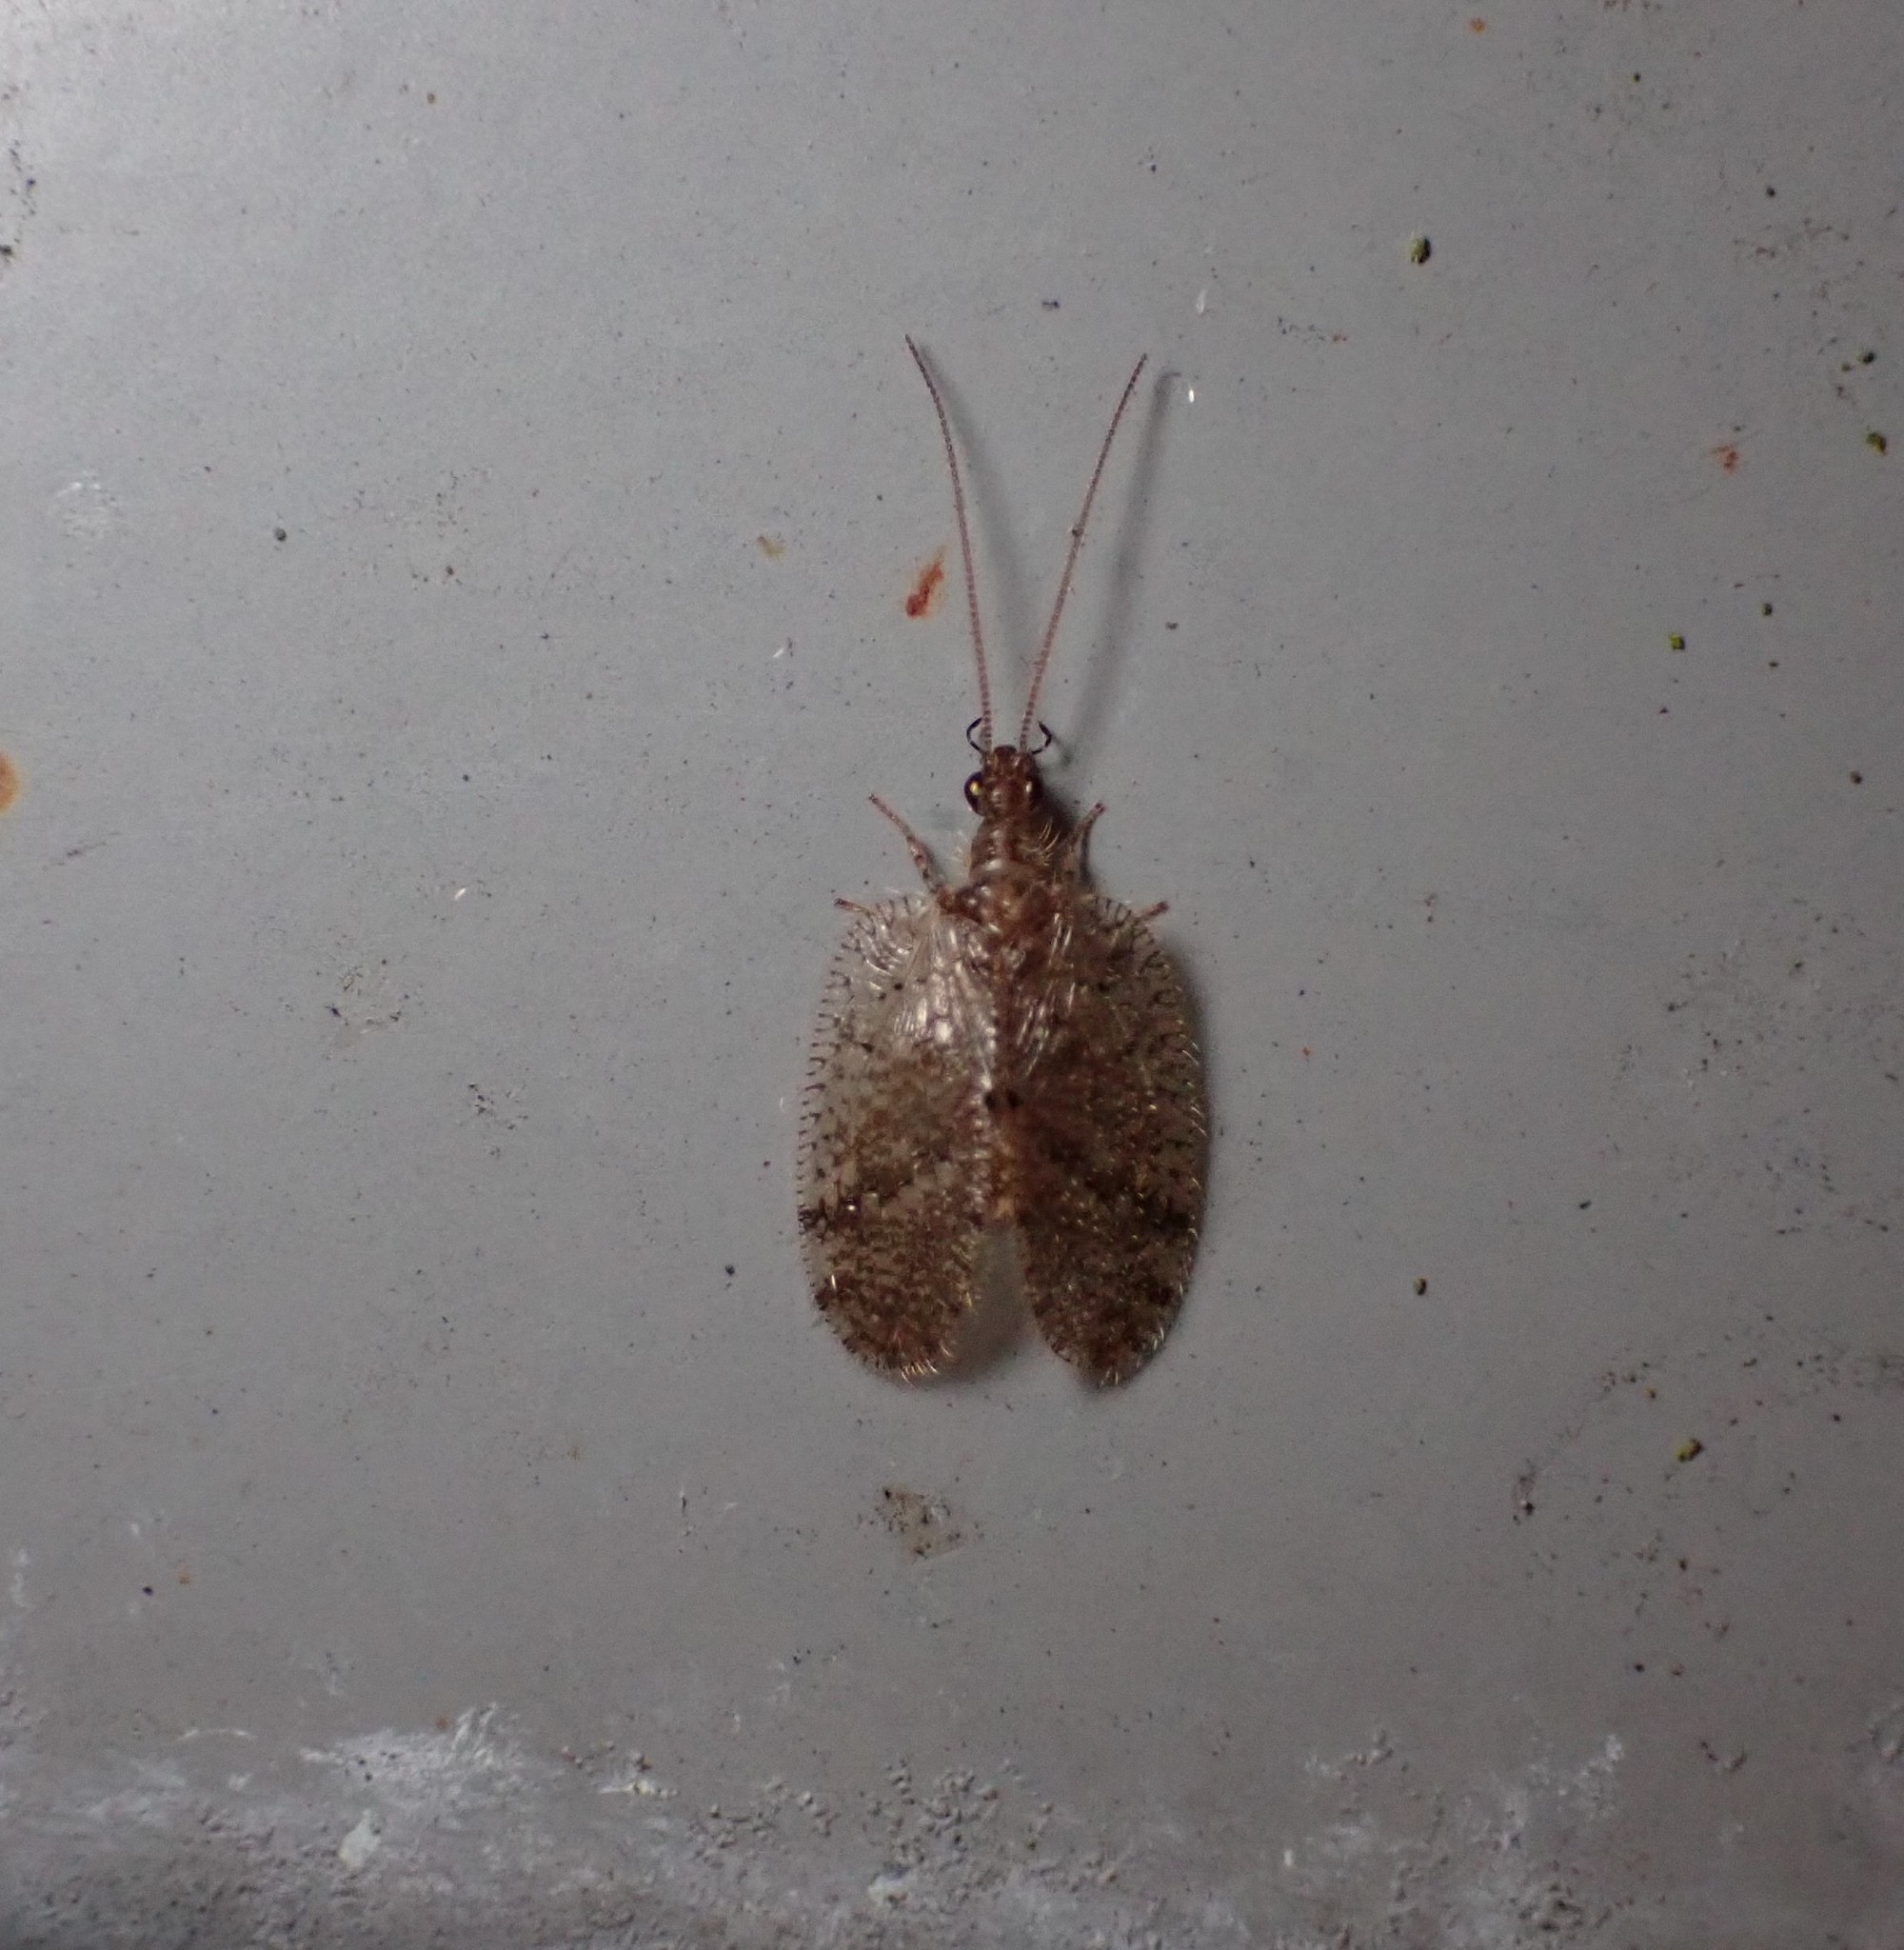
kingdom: Animalia
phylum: Arthropoda
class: Insecta
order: Neuroptera
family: Hemerobiidae
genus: Psectra
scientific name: Psectra nakaharai
